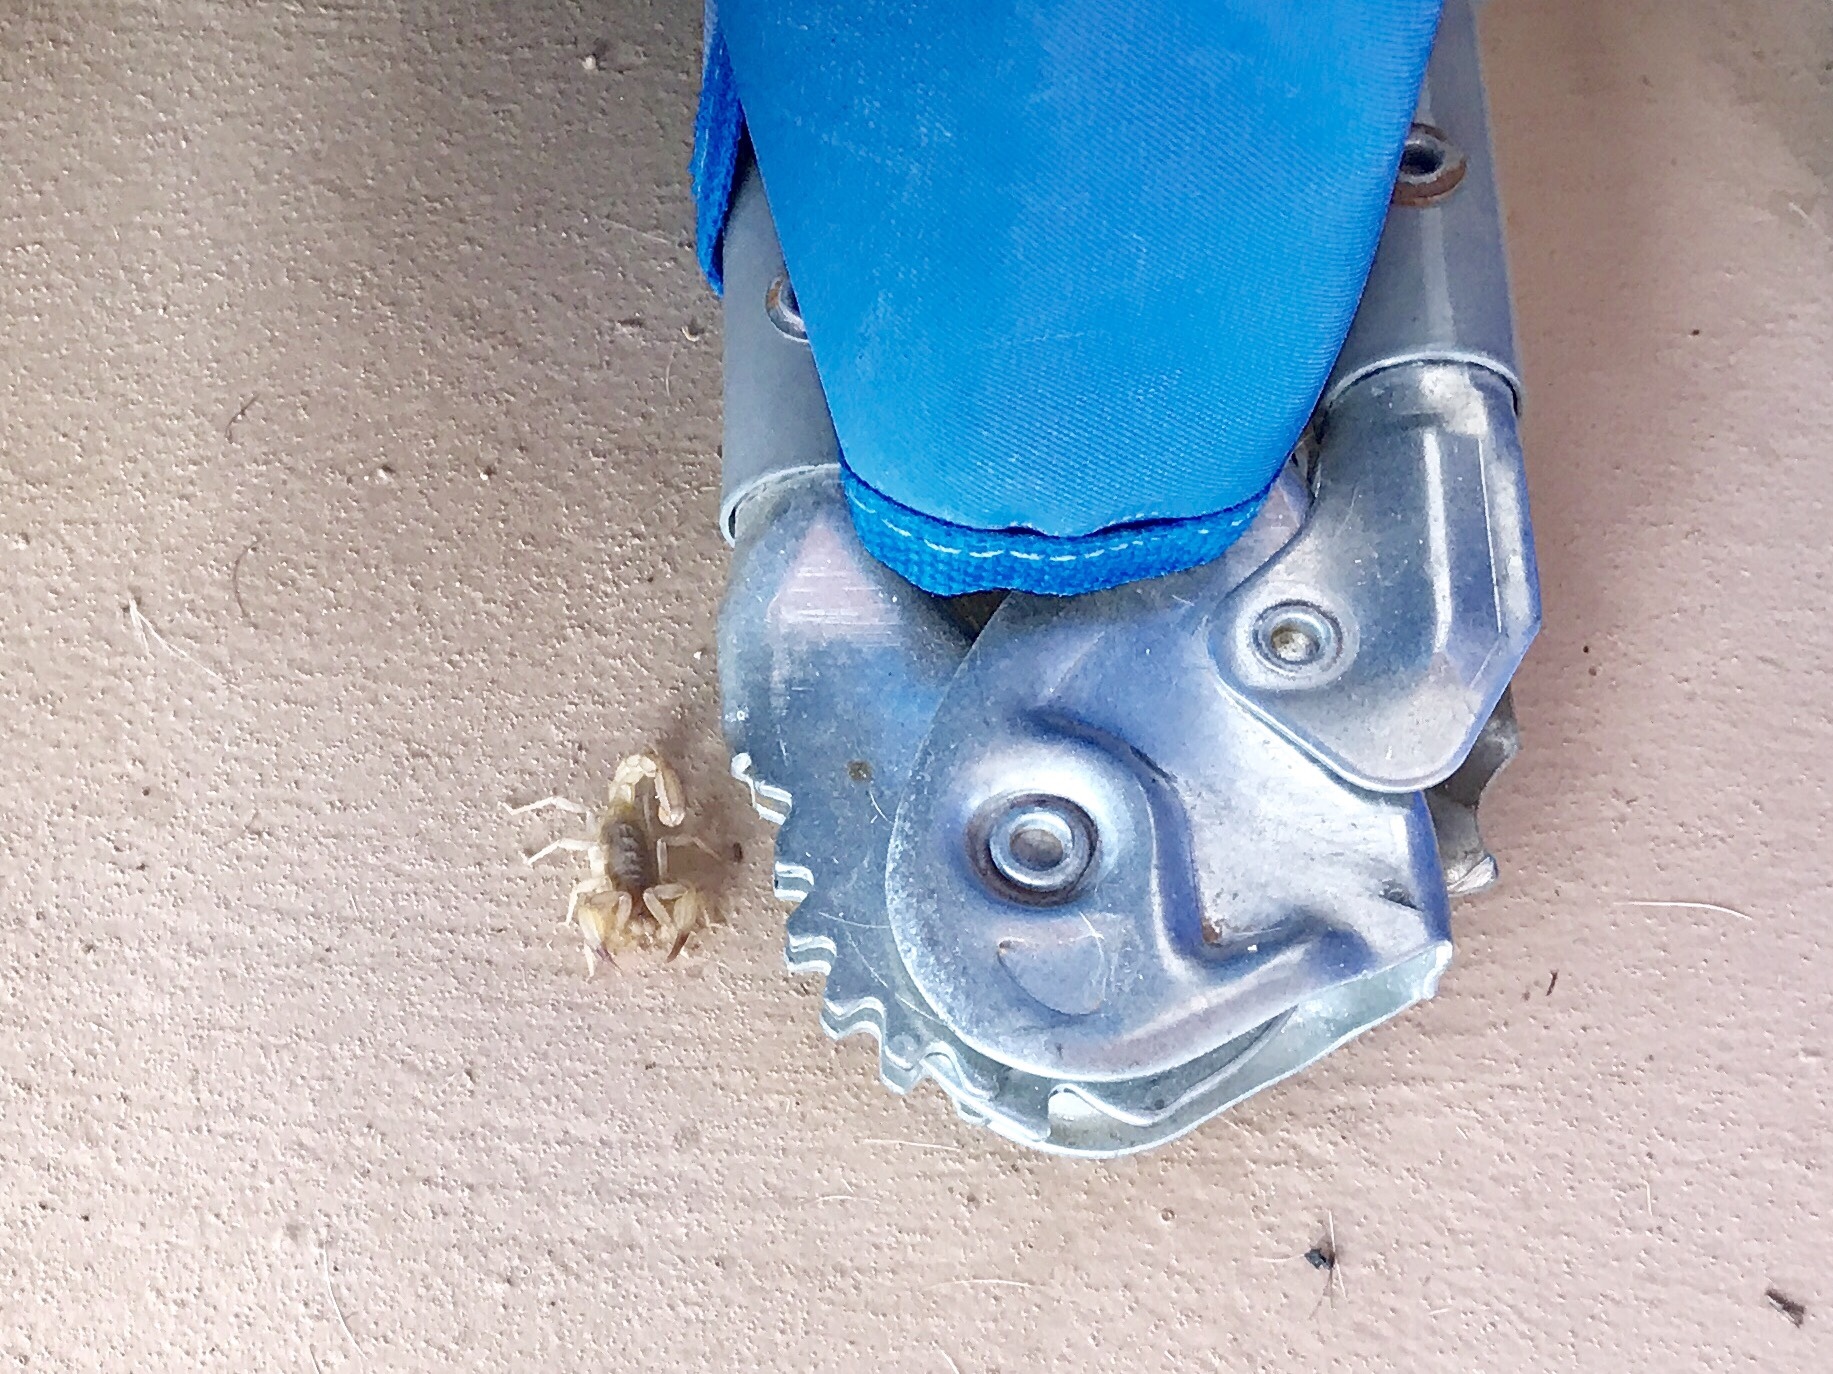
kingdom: Animalia
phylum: Arthropoda
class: Arachnida
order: Scorpiones
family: Vaejovidae
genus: Chihuahuanus
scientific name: Chihuahuanus russelli
